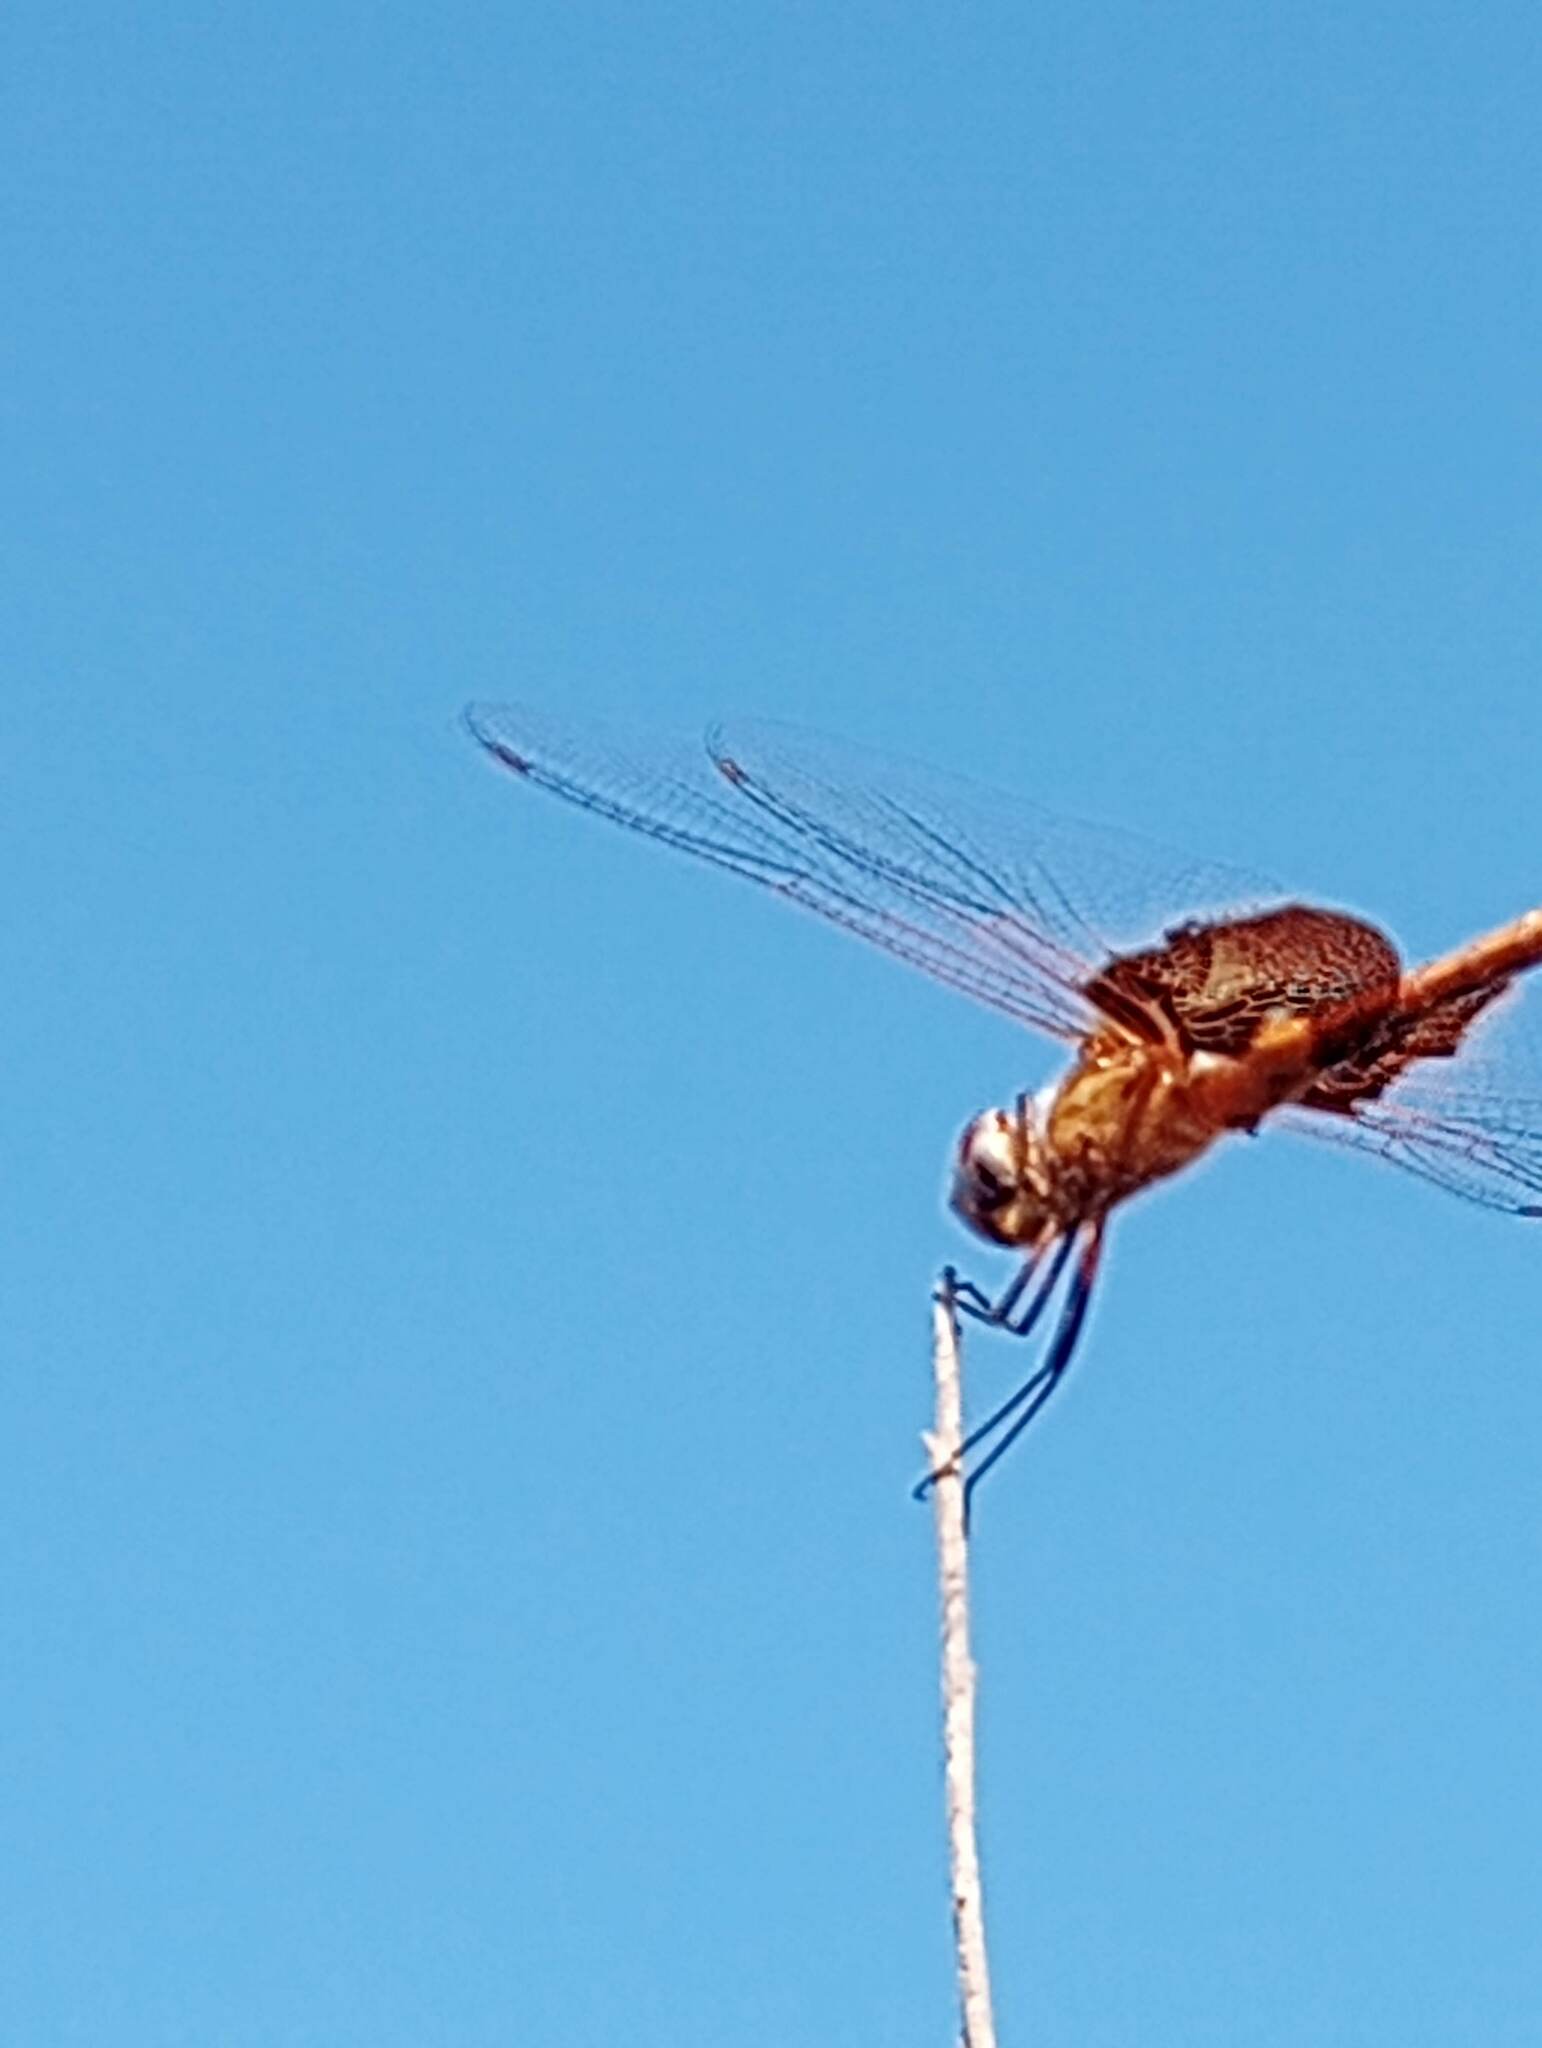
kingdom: Animalia
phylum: Arthropoda
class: Insecta
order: Odonata
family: Libellulidae
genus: Tramea
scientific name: Tramea onusta
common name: Red saddlebags
